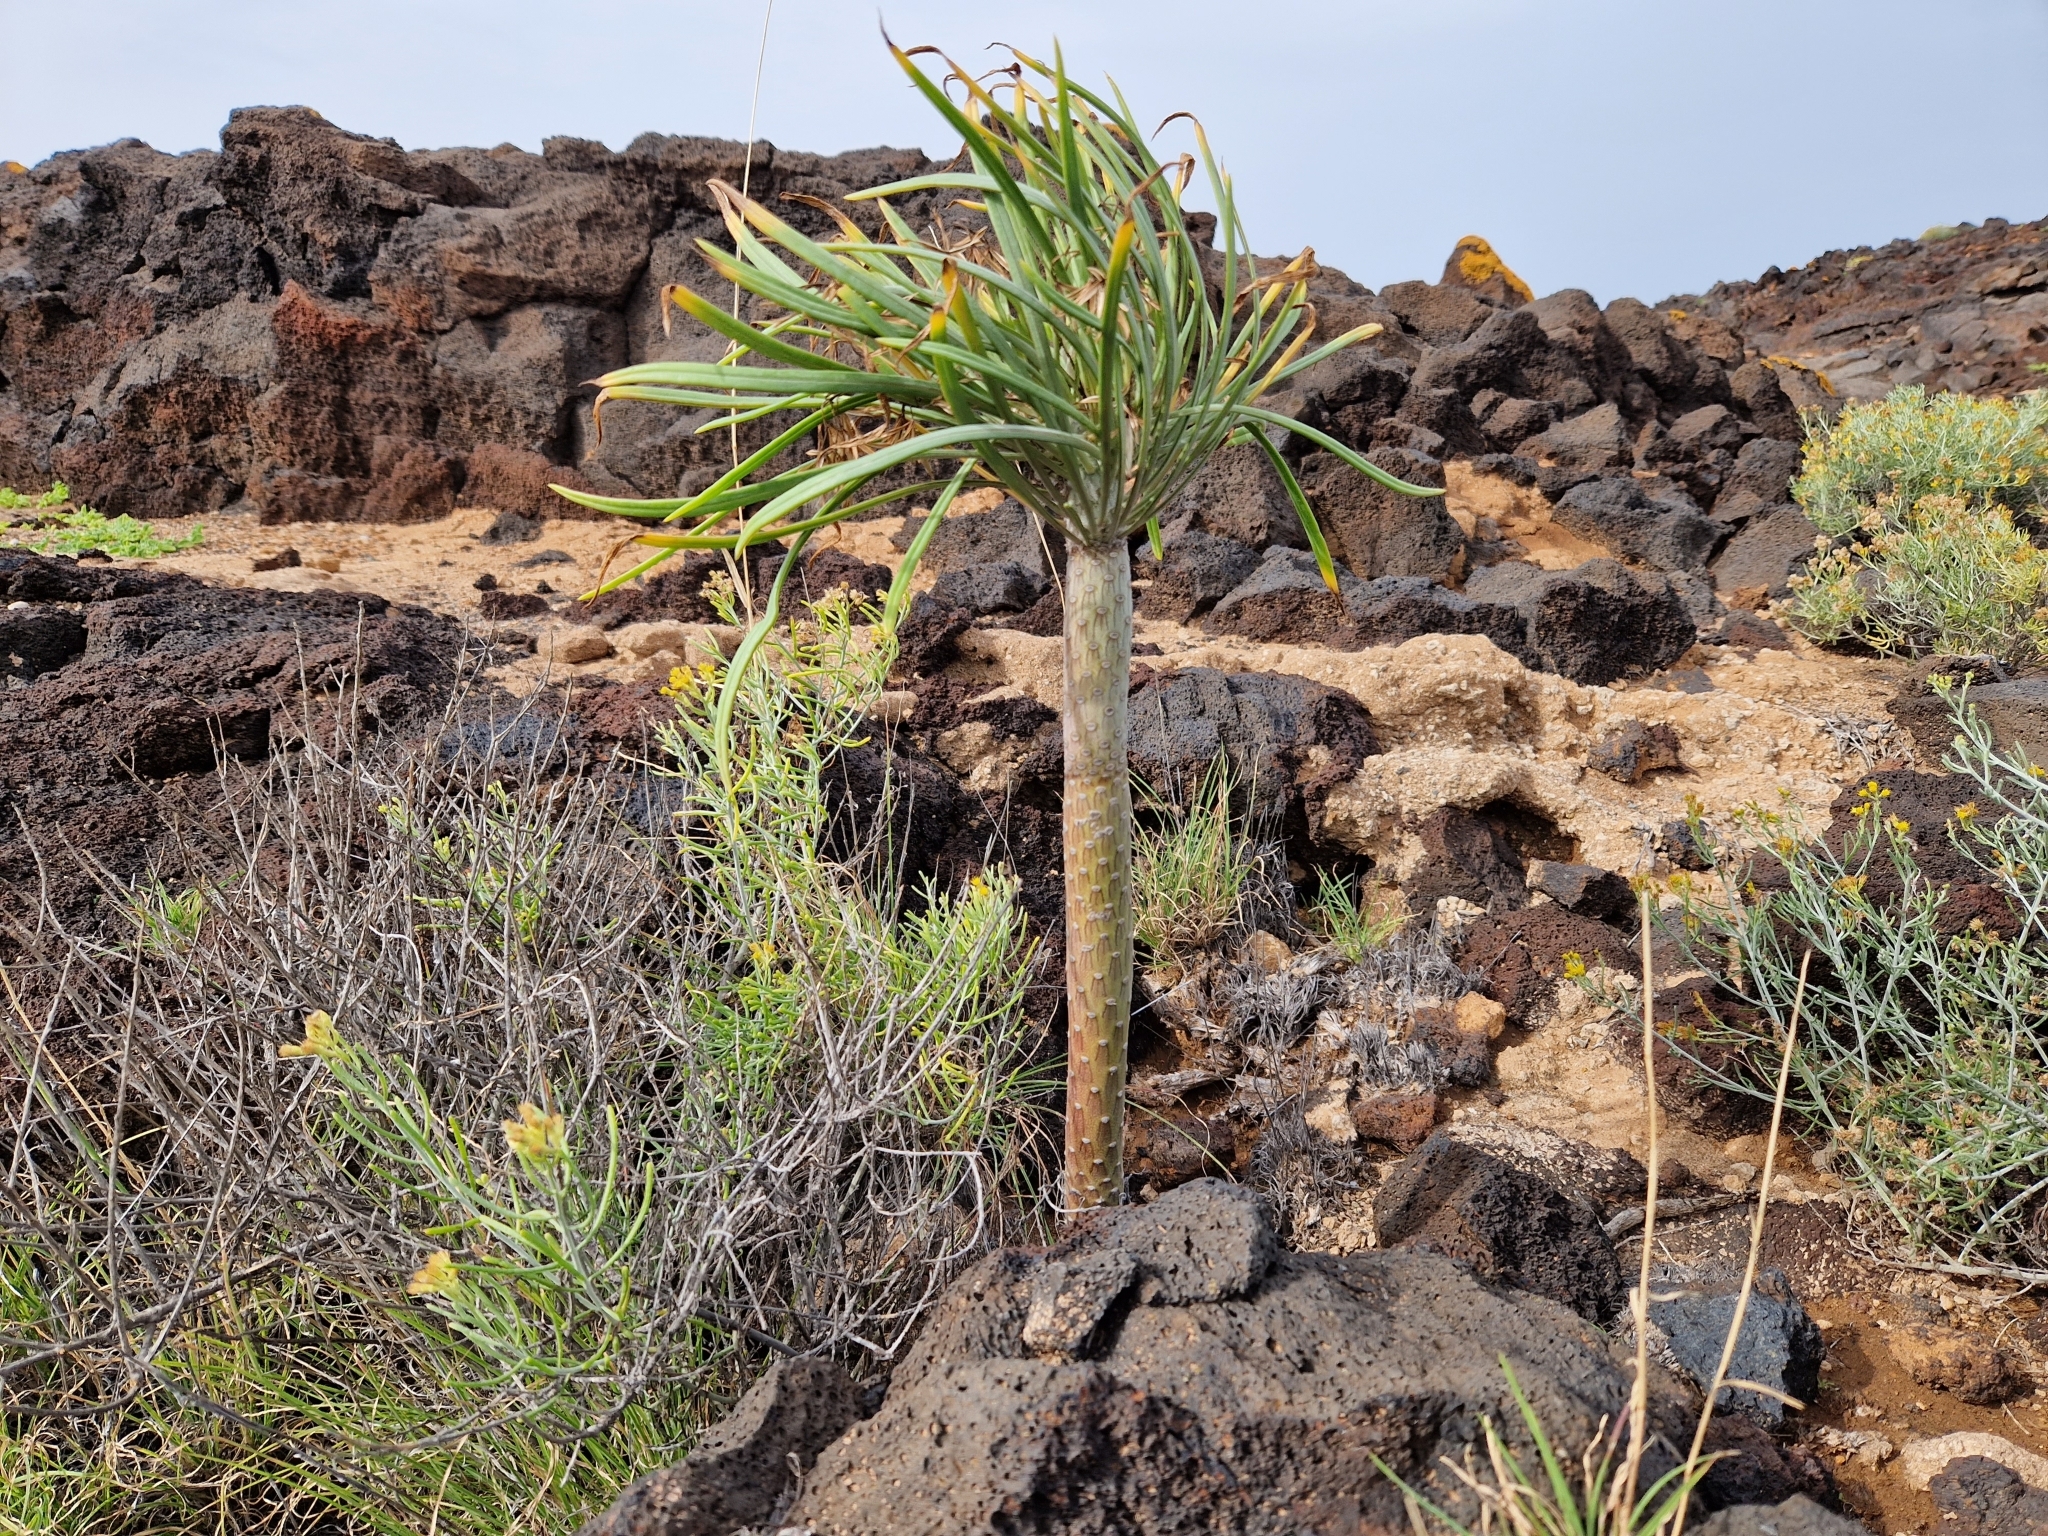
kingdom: Plantae
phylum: Tracheophyta
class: Magnoliopsida
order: Asterales
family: Asteraceae
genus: Kleinia
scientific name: Kleinia neriifolia
